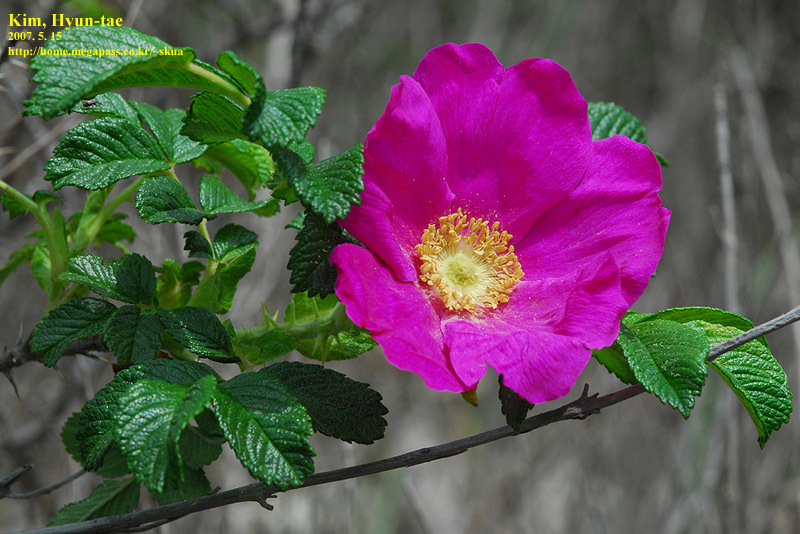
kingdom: Plantae
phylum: Tracheophyta
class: Magnoliopsida
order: Rosales
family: Rosaceae
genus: Rosa
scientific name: Rosa rugosa
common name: Japanese rose
